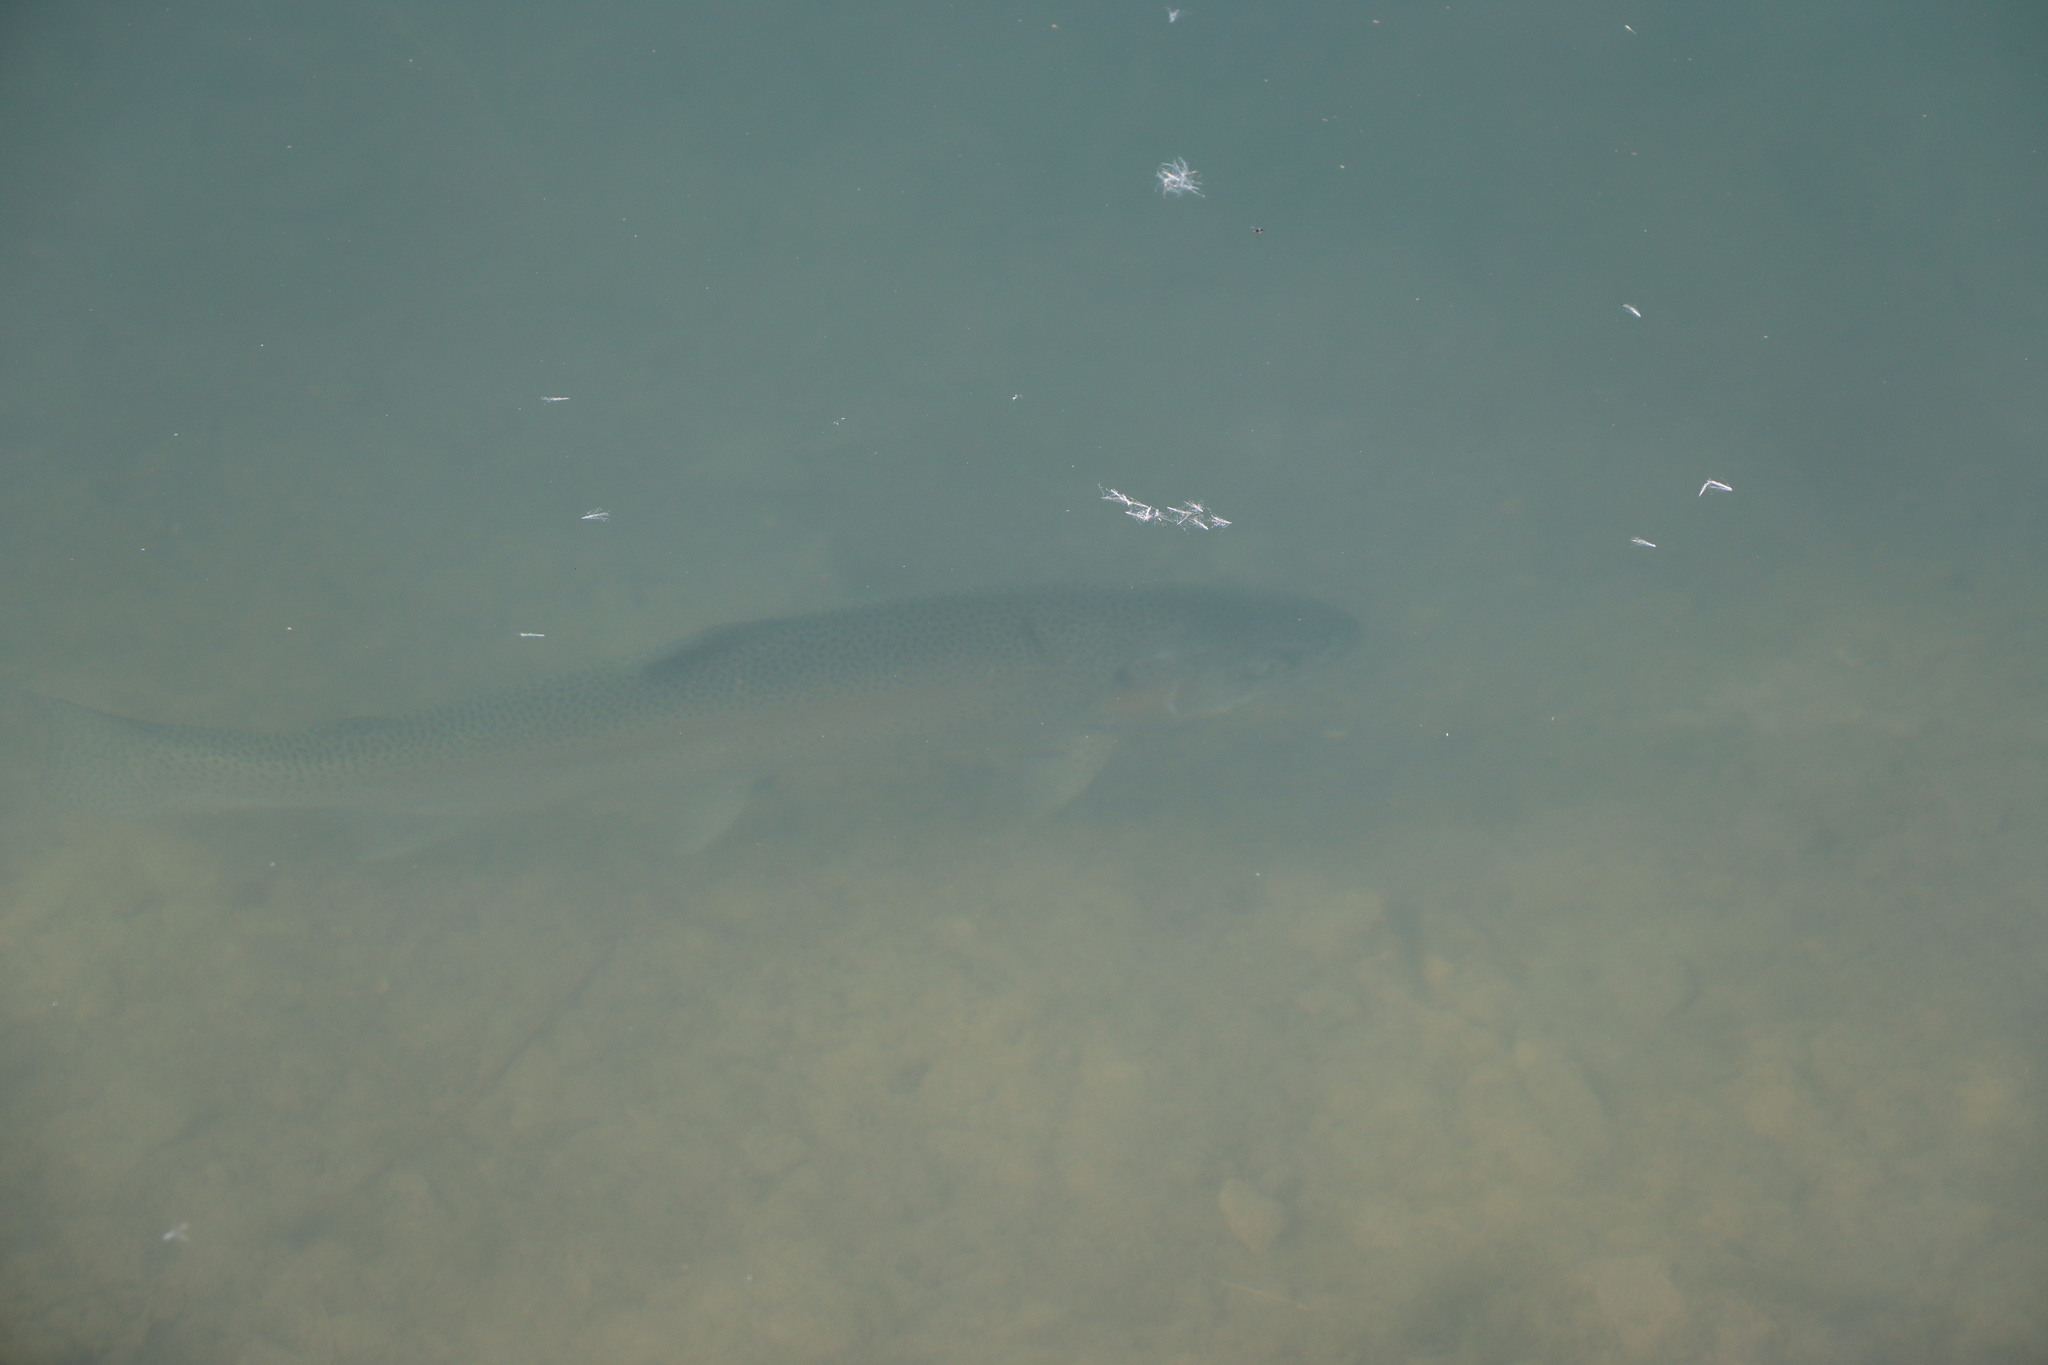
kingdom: Animalia
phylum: Chordata
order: Salmoniformes
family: Salmonidae
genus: Oncorhynchus
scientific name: Oncorhynchus mykiss
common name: Rainbow trout
